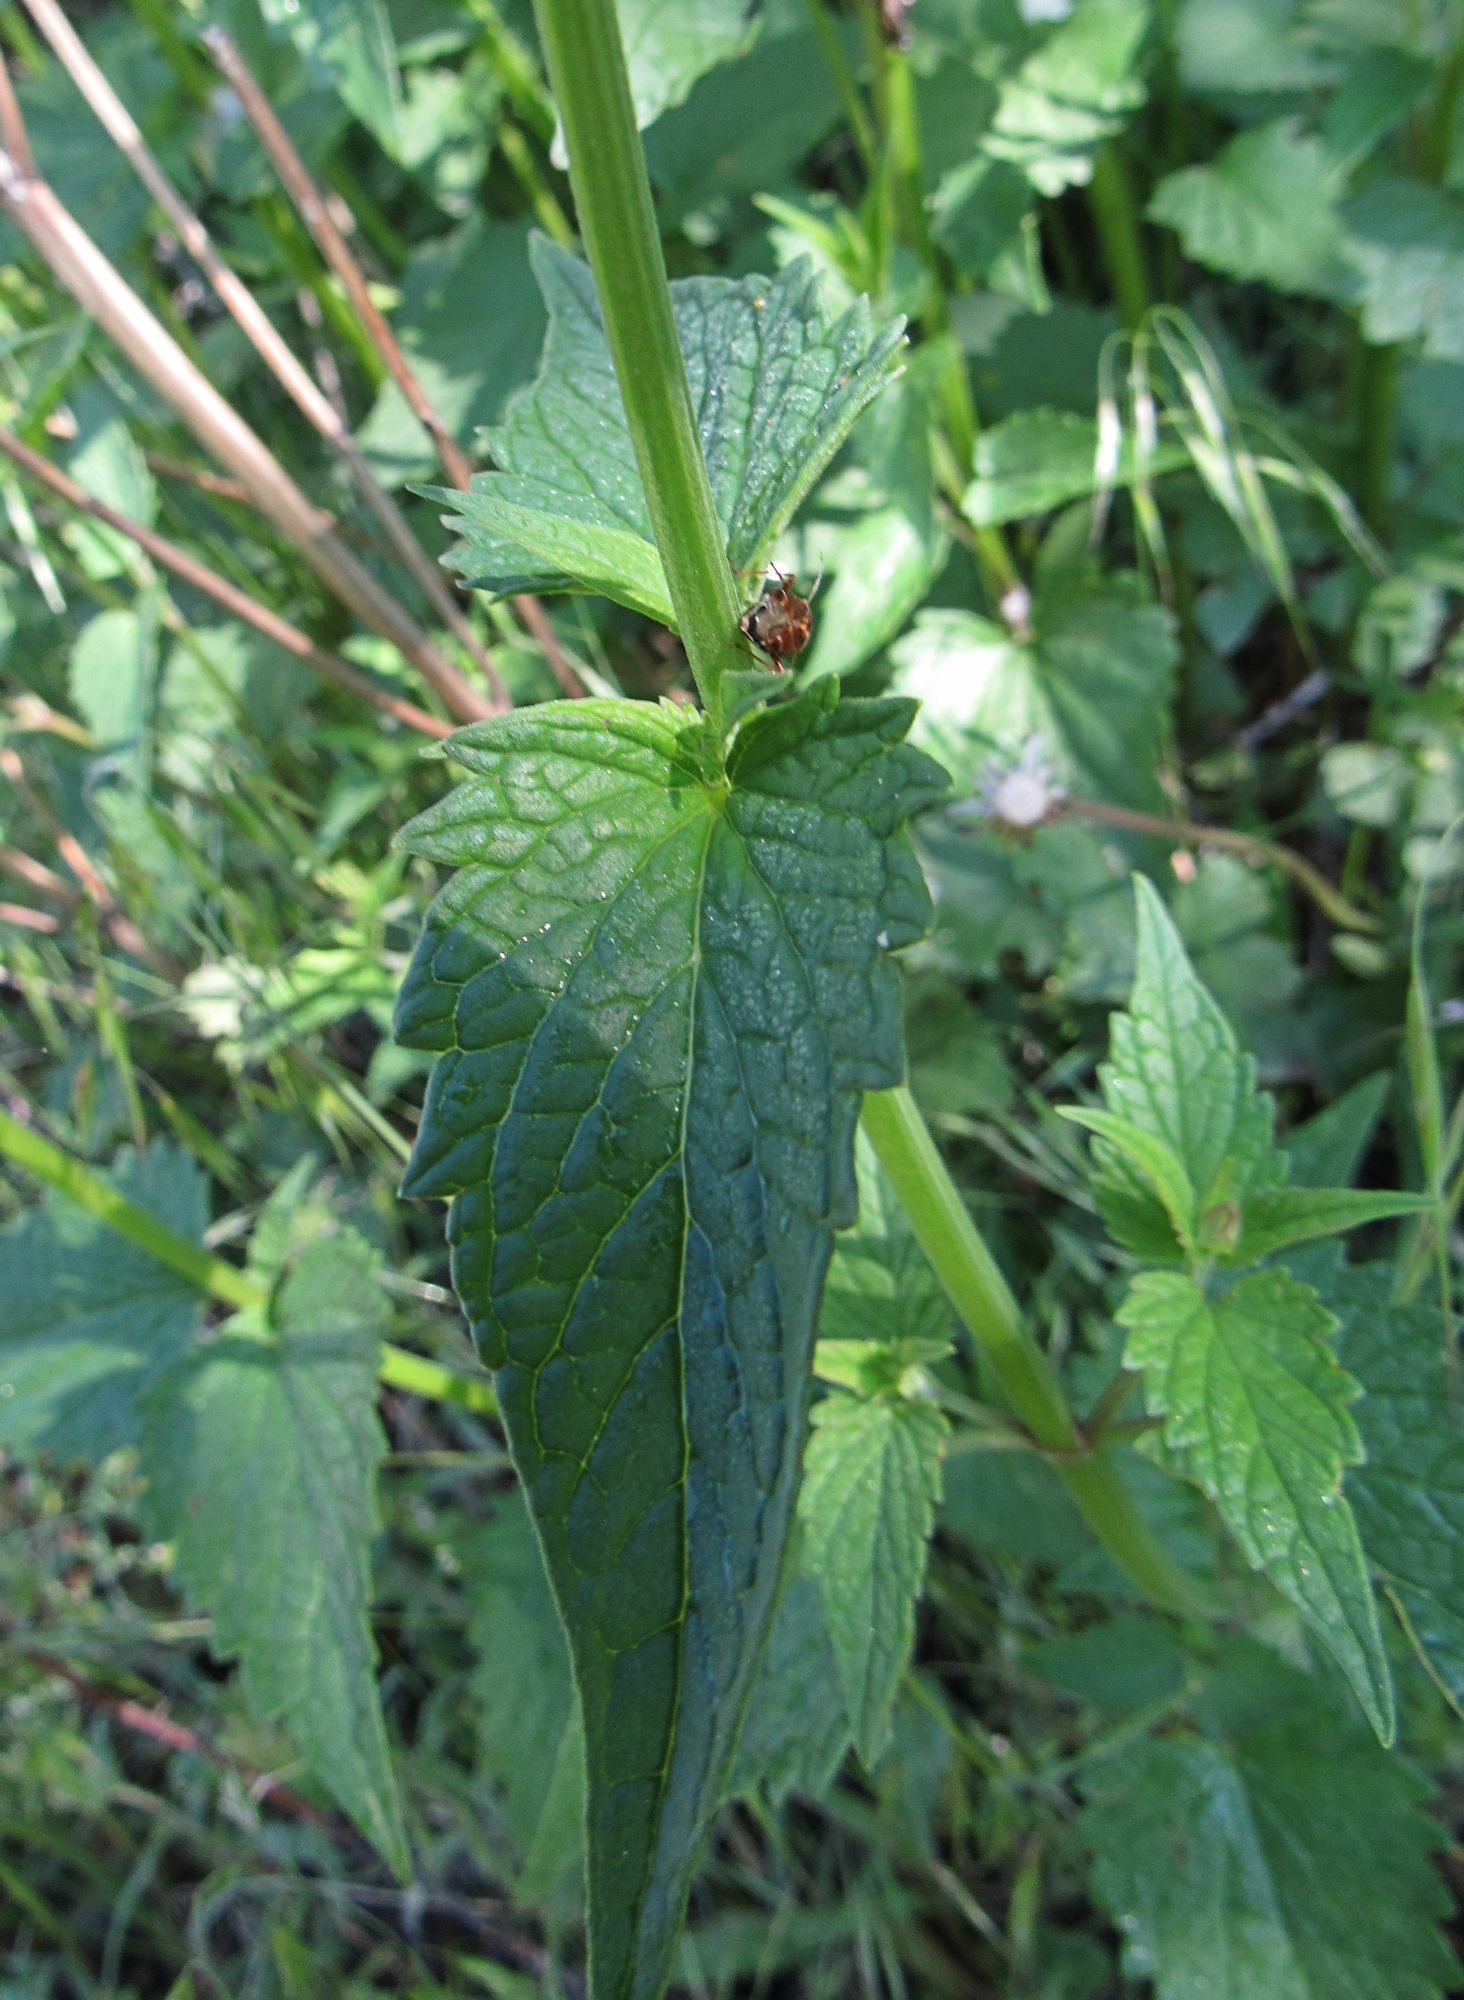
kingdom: Plantae
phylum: Tracheophyta
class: Magnoliopsida
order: Lamiales
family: Lamiaceae
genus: Agastache
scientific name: Agastache urticifolia
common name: Horsemint giant hyssop
